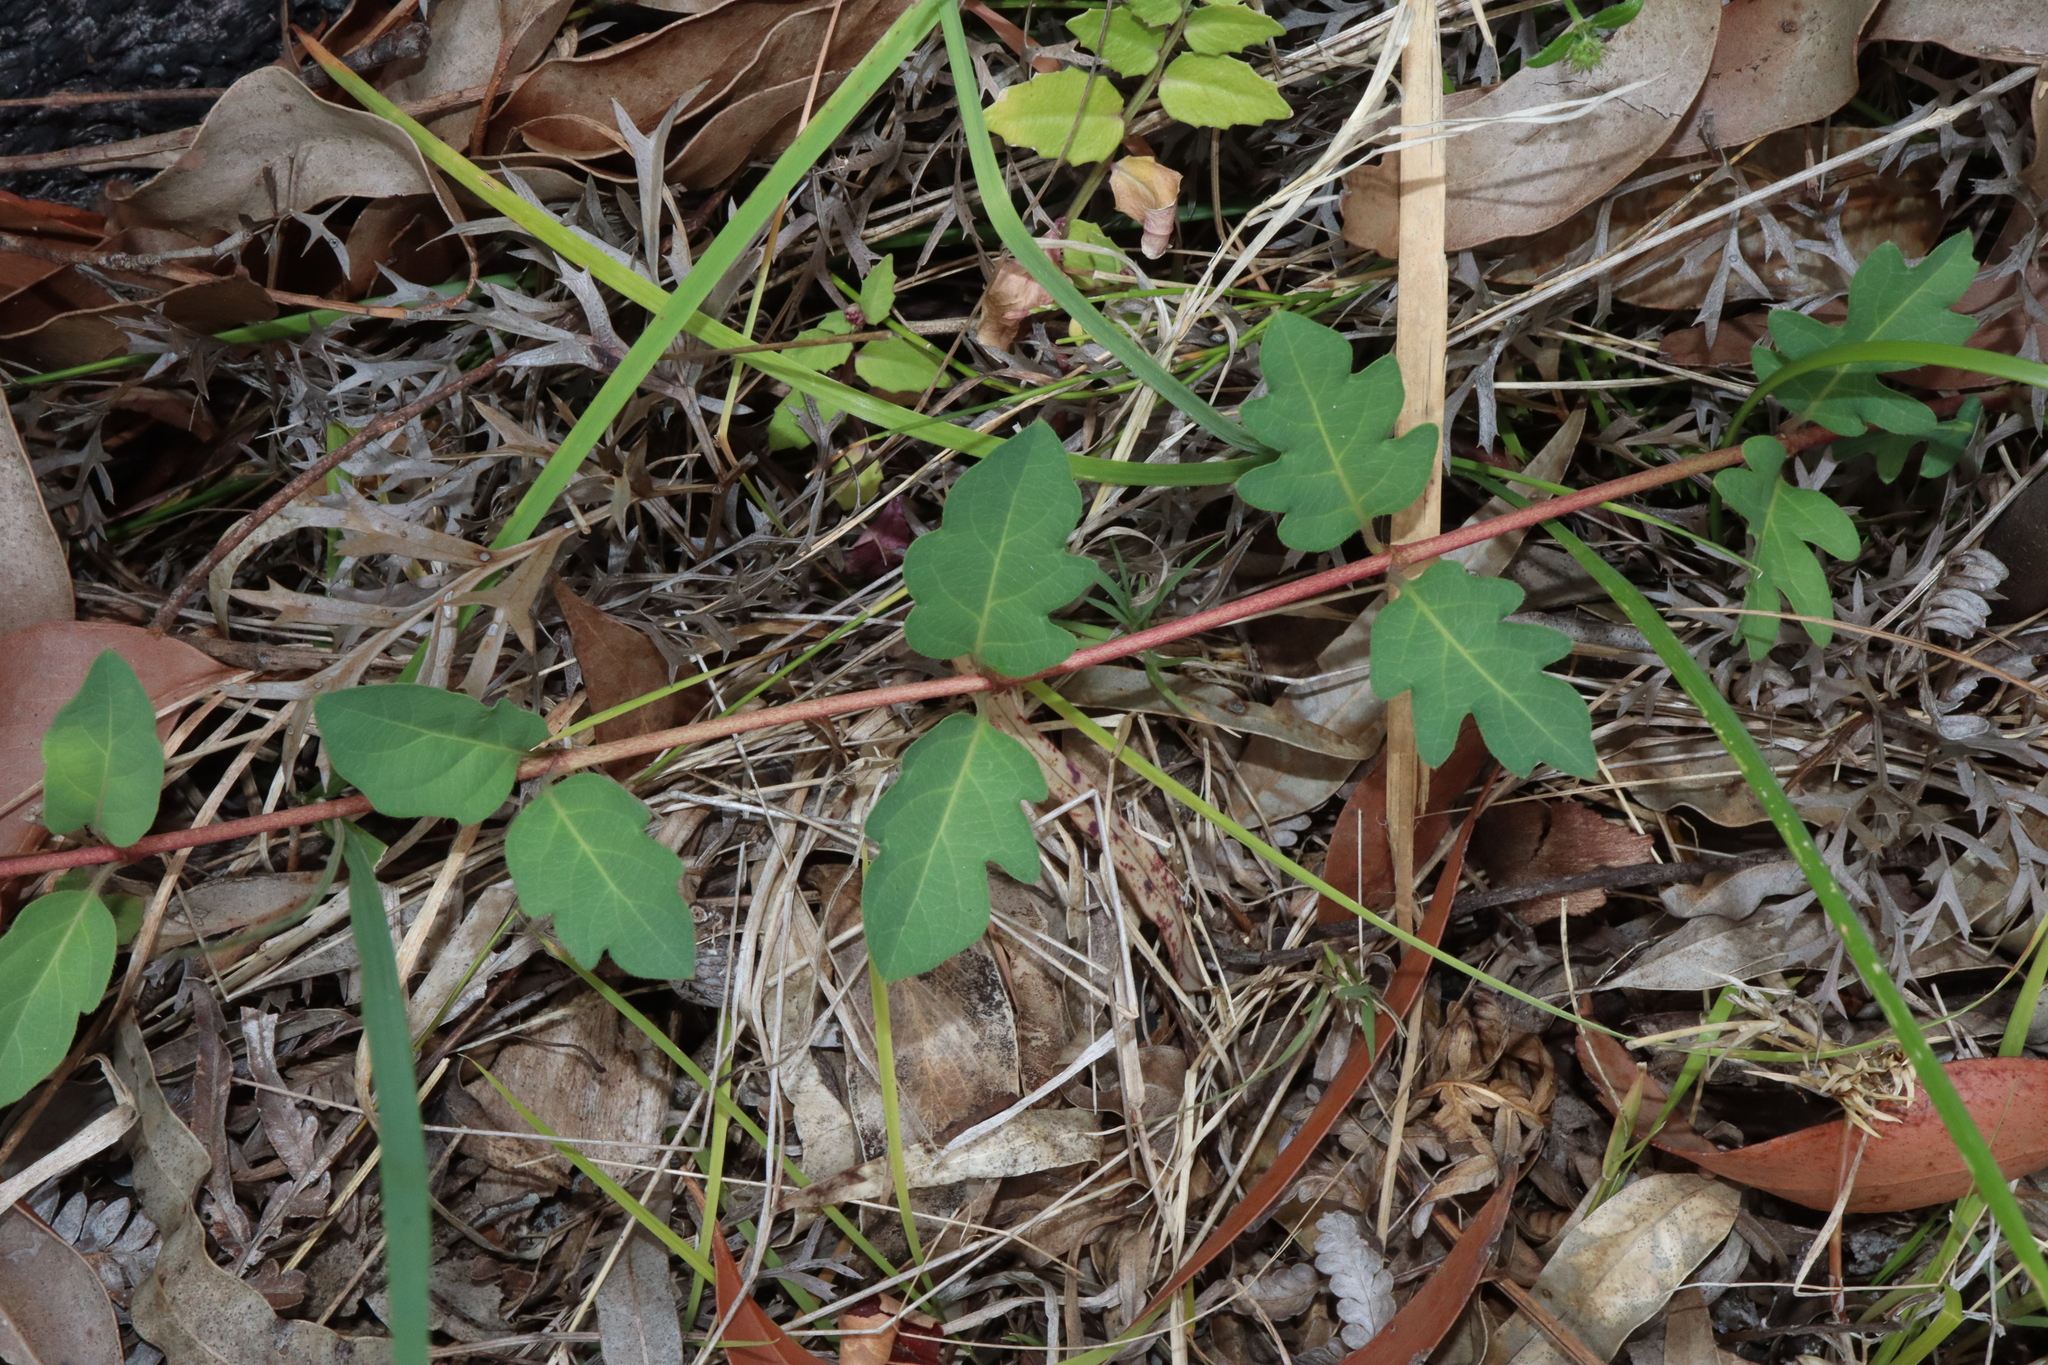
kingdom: Plantae
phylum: Tracheophyta
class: Magnoliopsida
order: Dipsacales
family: Caprifoliaceae
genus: Lonicera
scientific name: Lonicera japonica
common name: Japanese honeysuckle
